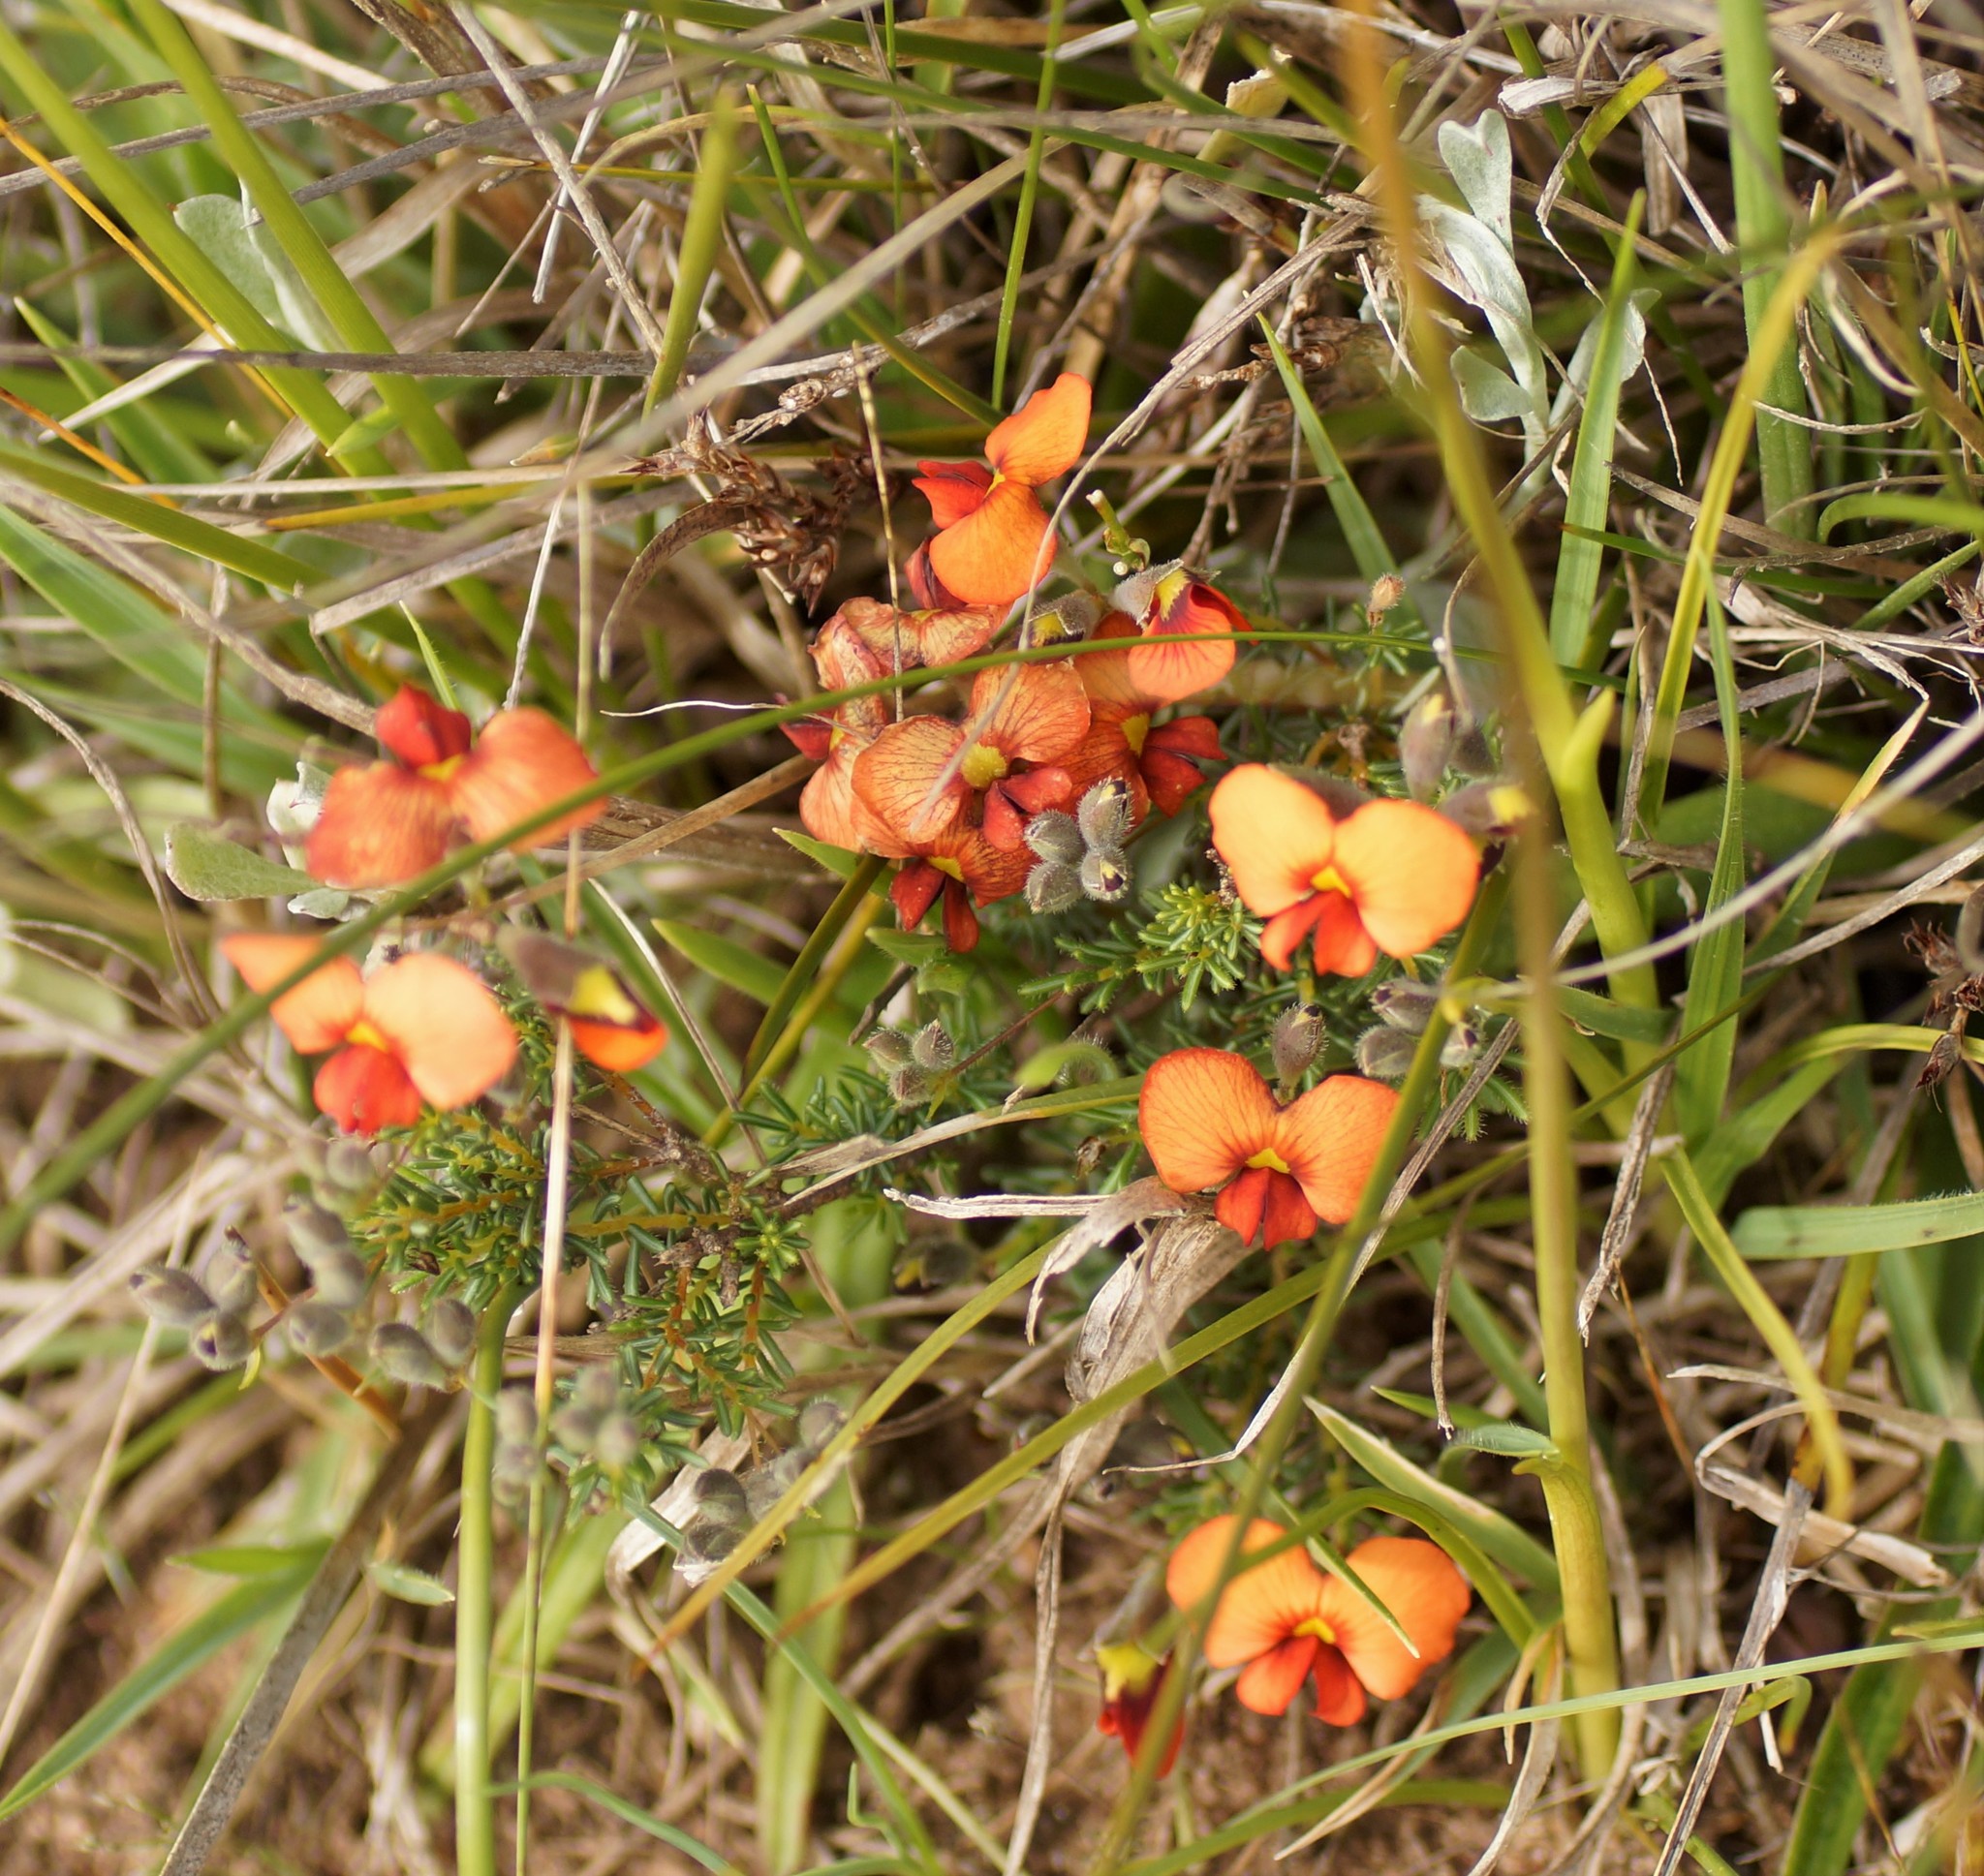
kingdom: Plantae
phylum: Tracheophyta
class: Magnoliopsida
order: Fabales
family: Fabaceae
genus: Dillwynia
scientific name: Dillwynia hispida
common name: Red parrot-pea
